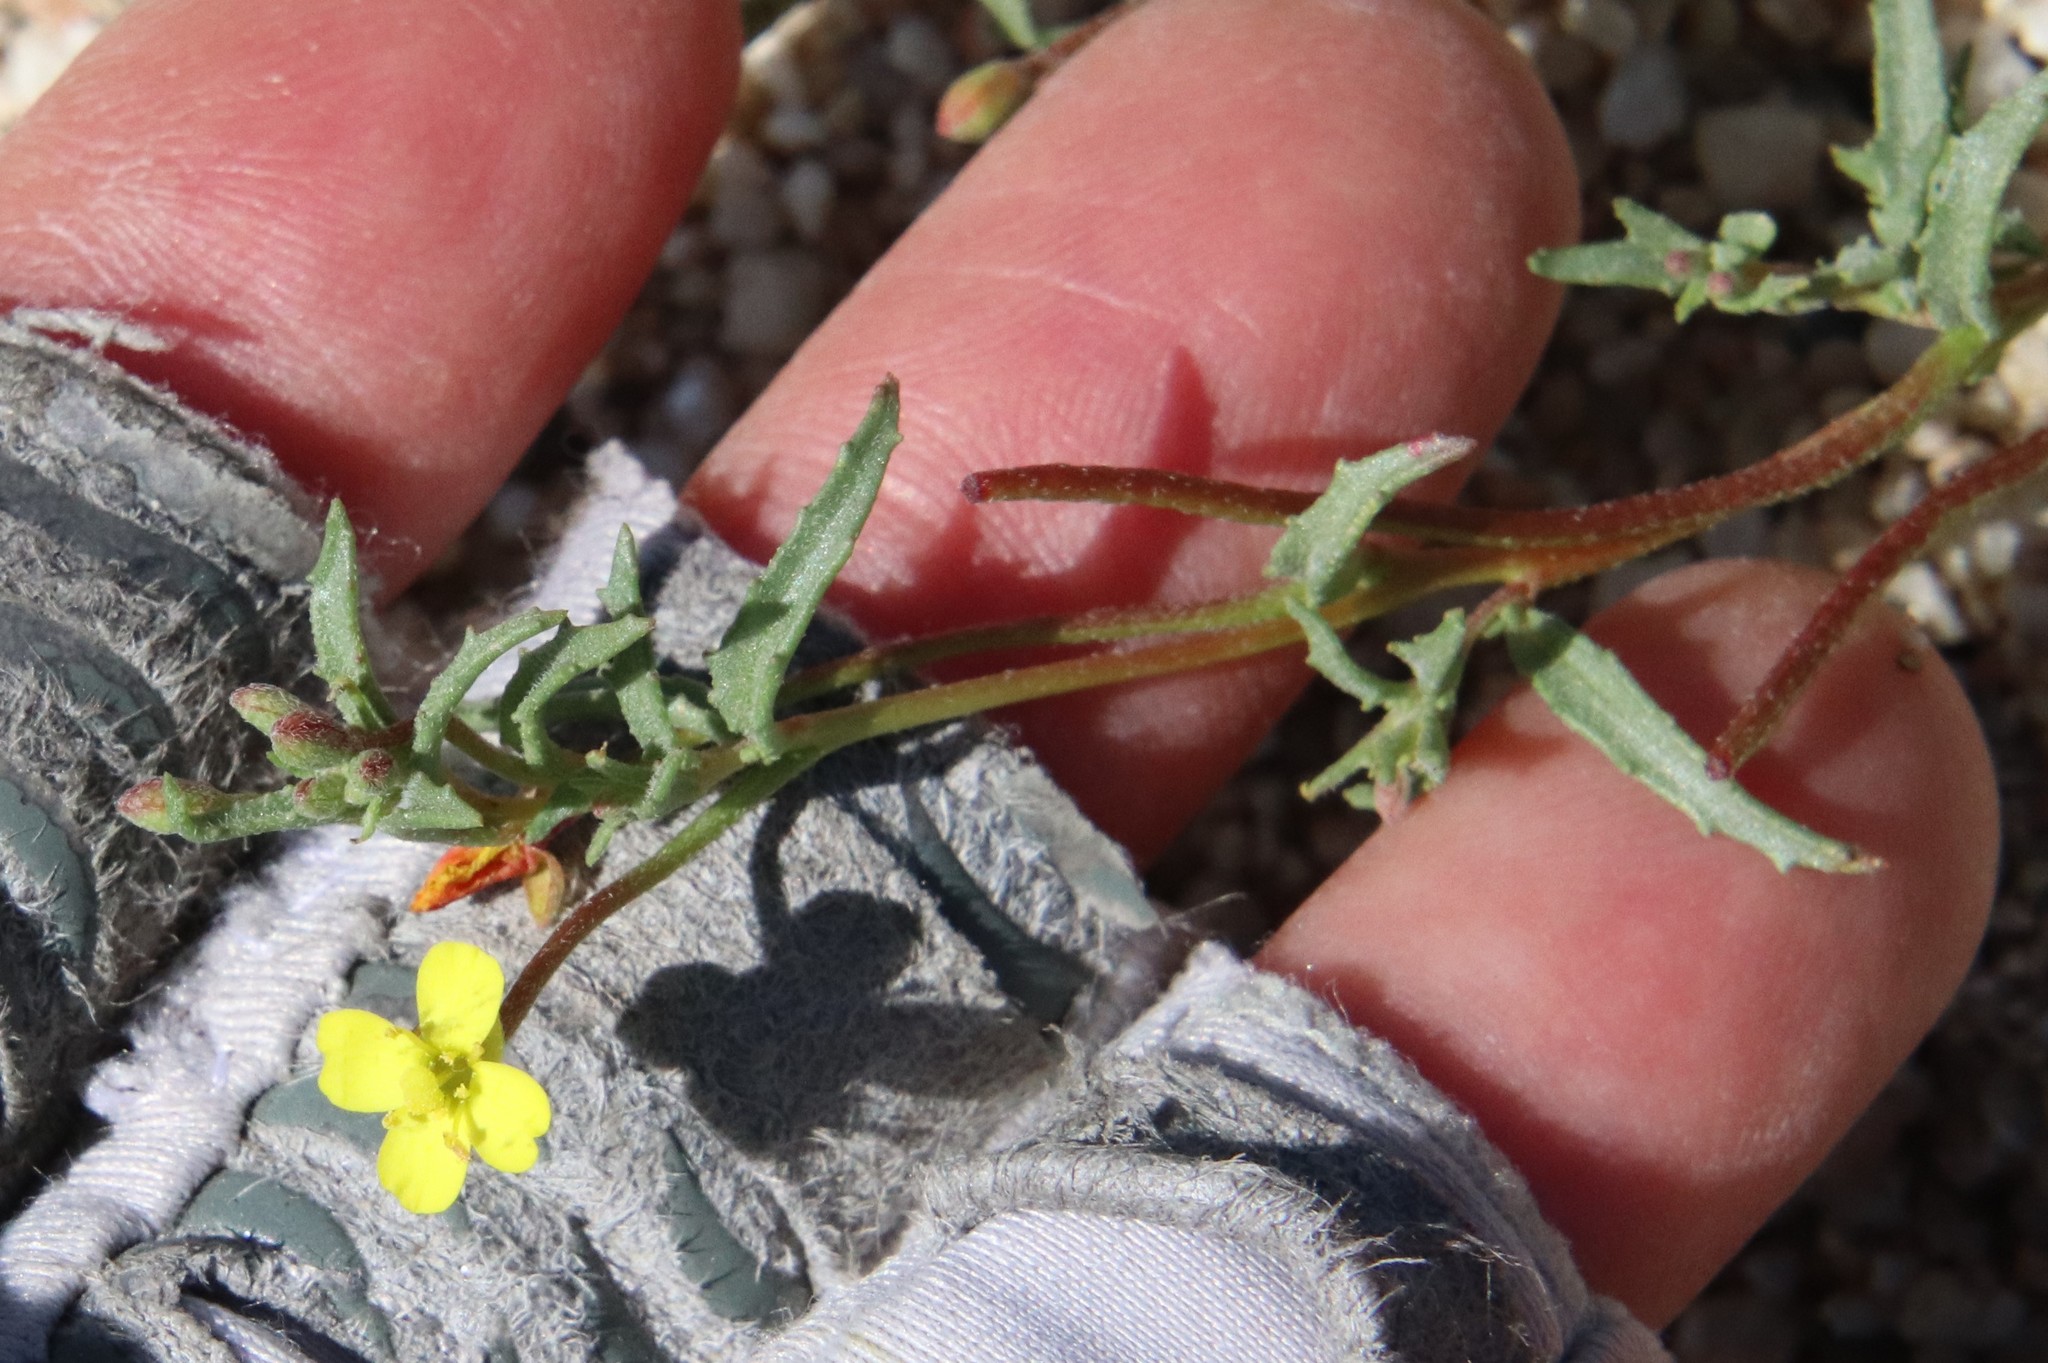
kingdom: Plantae
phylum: Tracheophyta
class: Magnoliopsida
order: Myrtales
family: Onagraceae
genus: Camissonia
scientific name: Camissonia strigulosa
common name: Contorted-primrose
